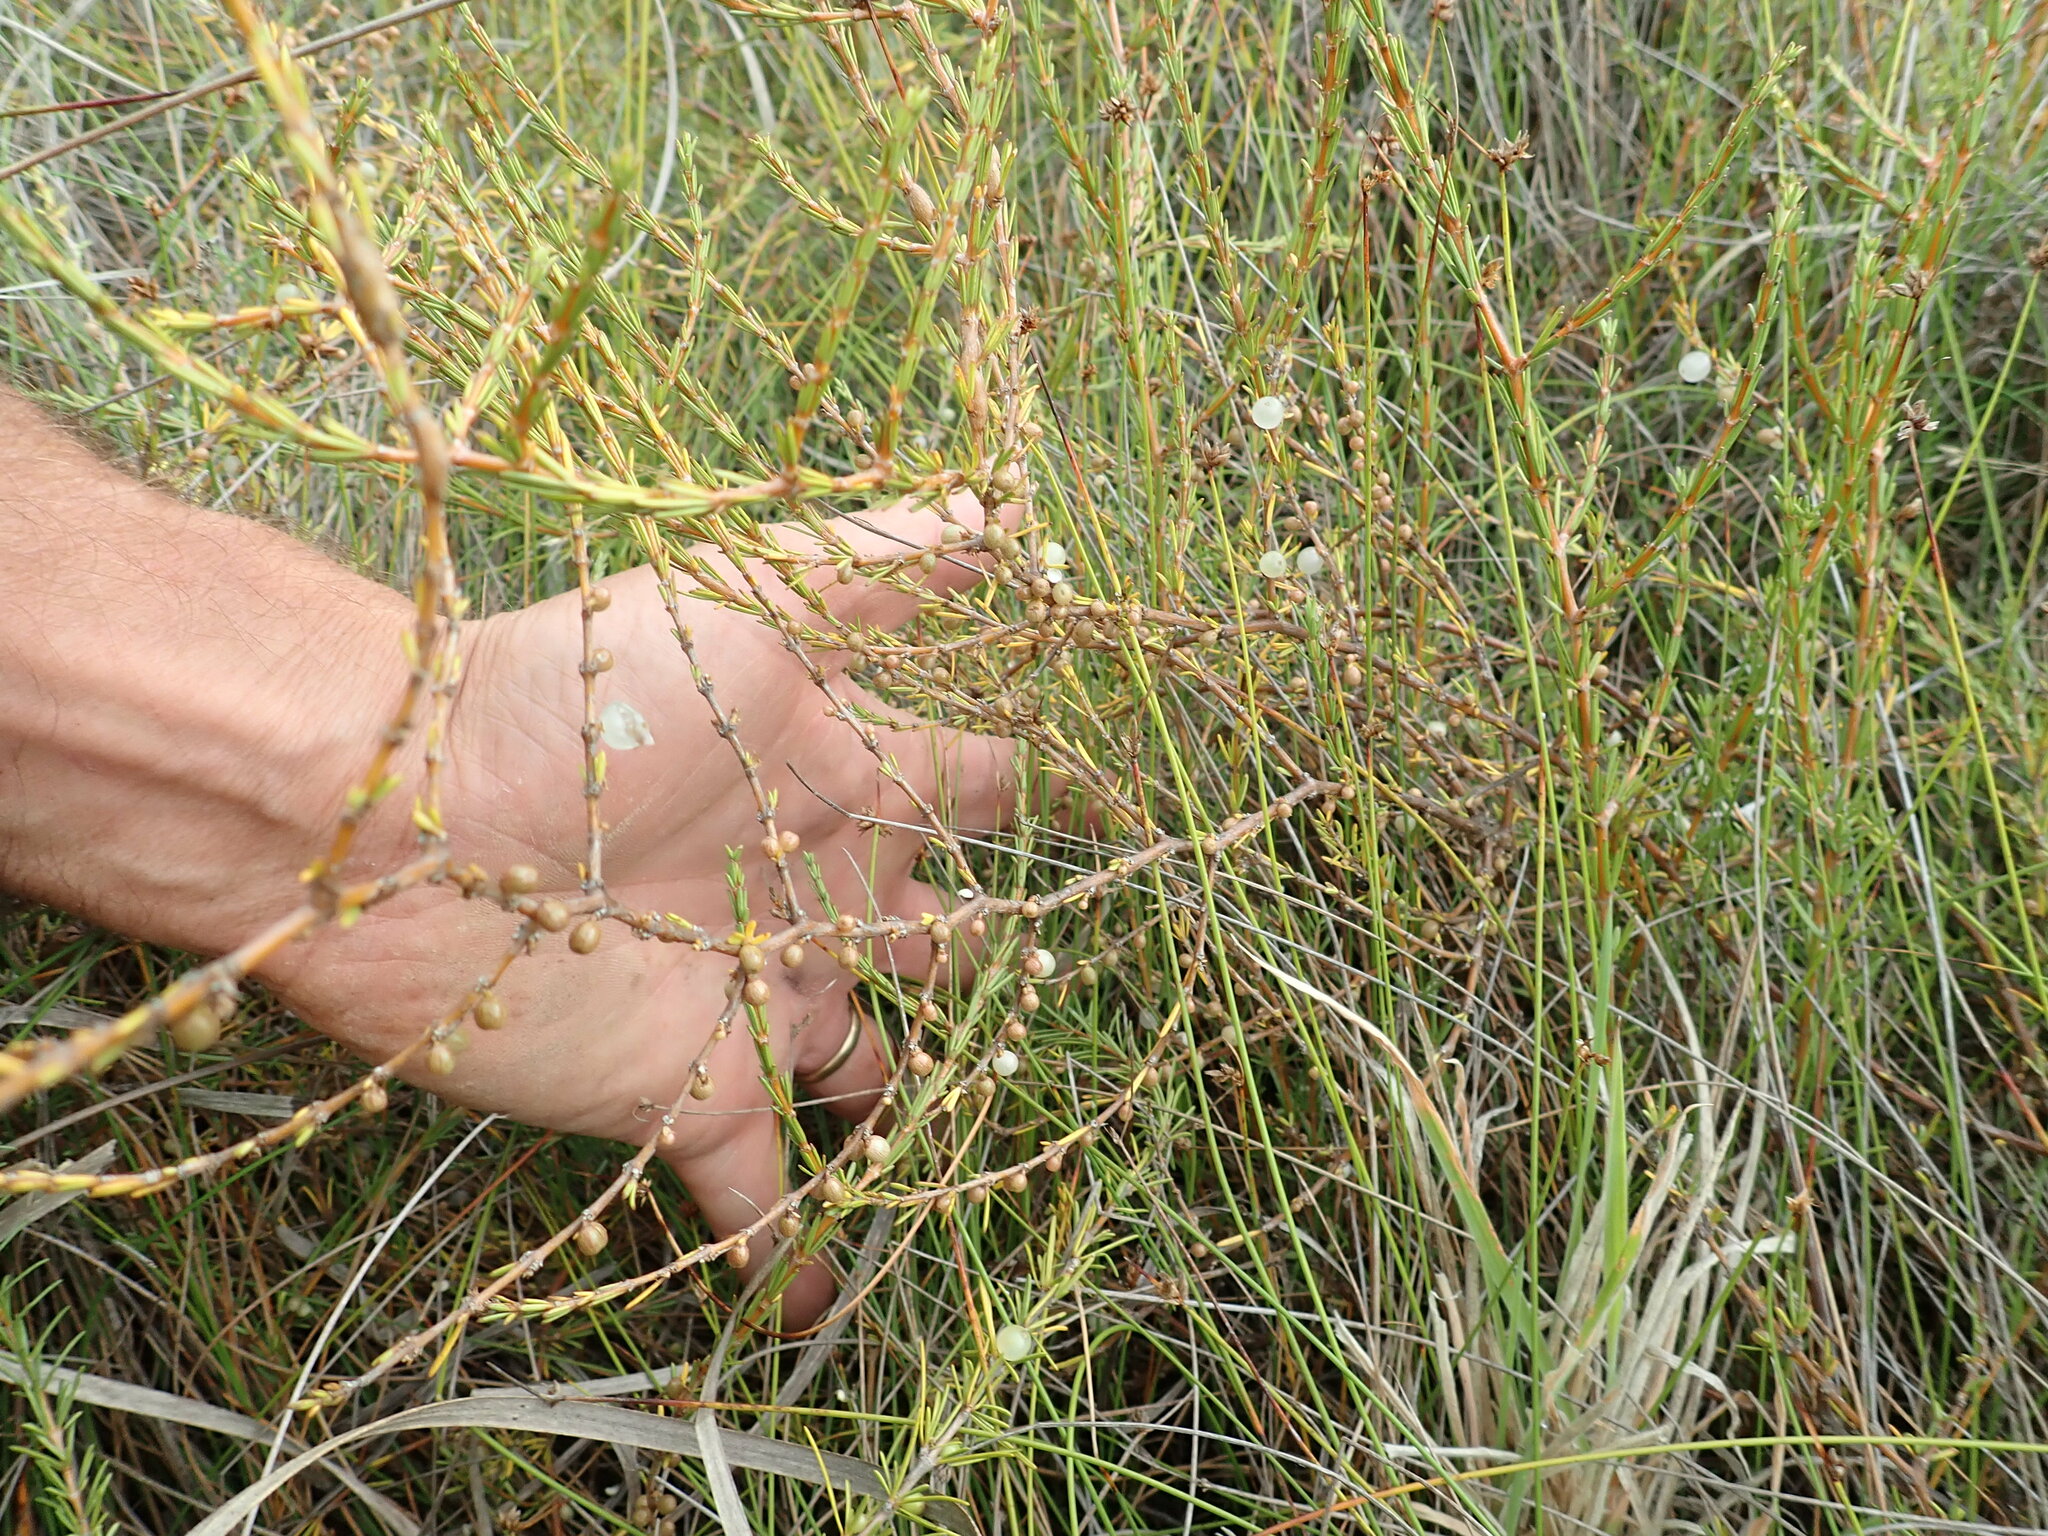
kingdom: Plantae
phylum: Tracheophyta
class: Magnoliopsida
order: Gentianales
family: Rubiaceae
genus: Coprosma
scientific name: Coprosma acerosa
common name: Sand coprosma
